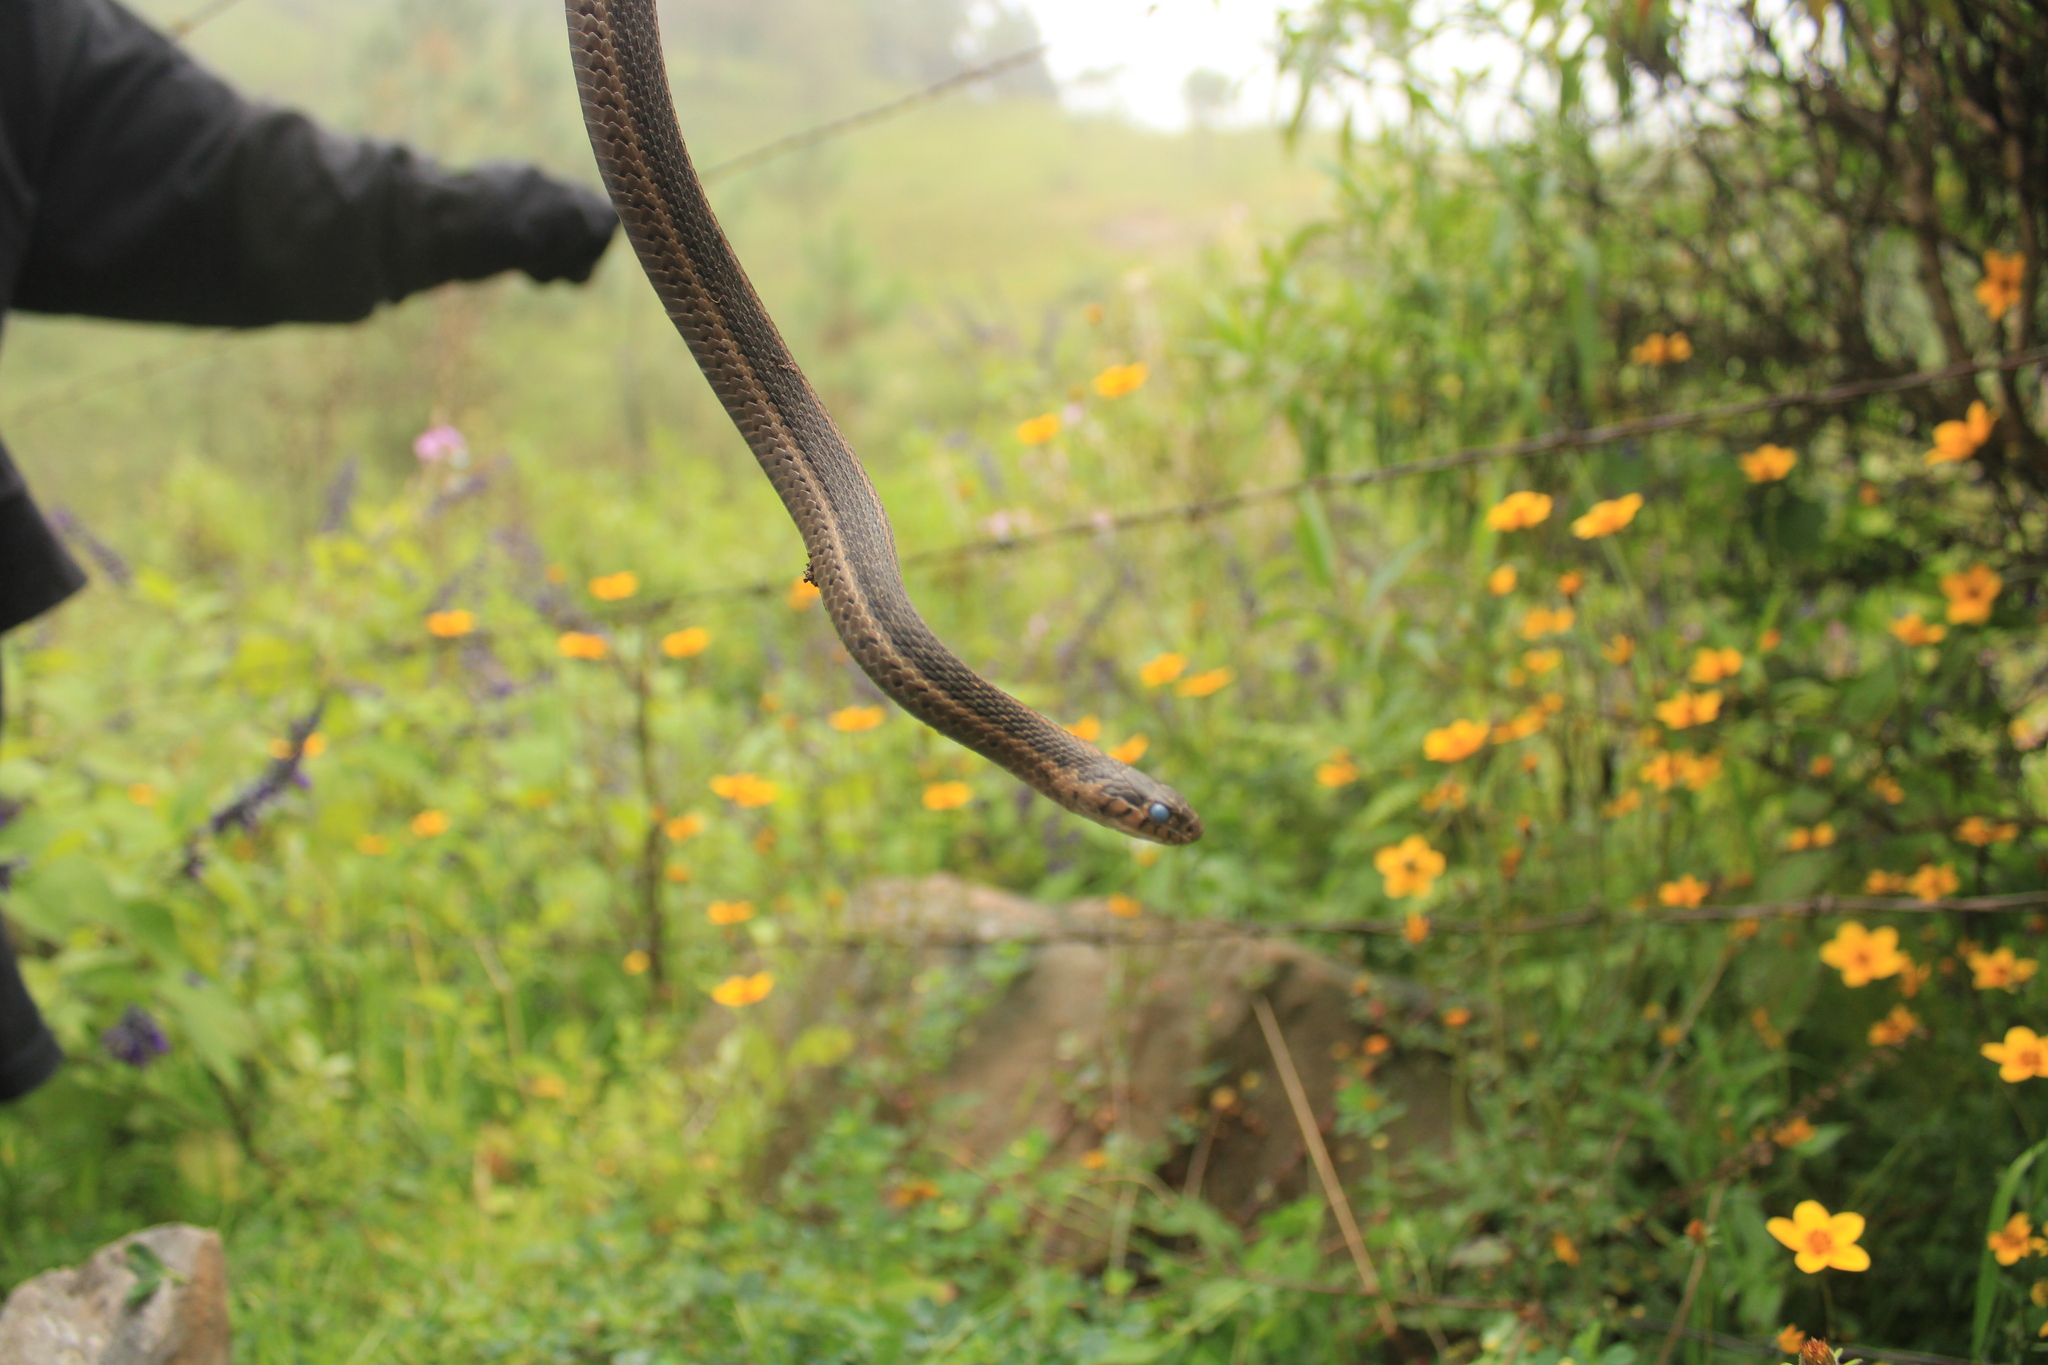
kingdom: Animalia
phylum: Chordata
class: Squamata
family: Colubridae
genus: Thamnophis
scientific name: Thamnophis scalaris
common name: Longtail alpine garter snake
